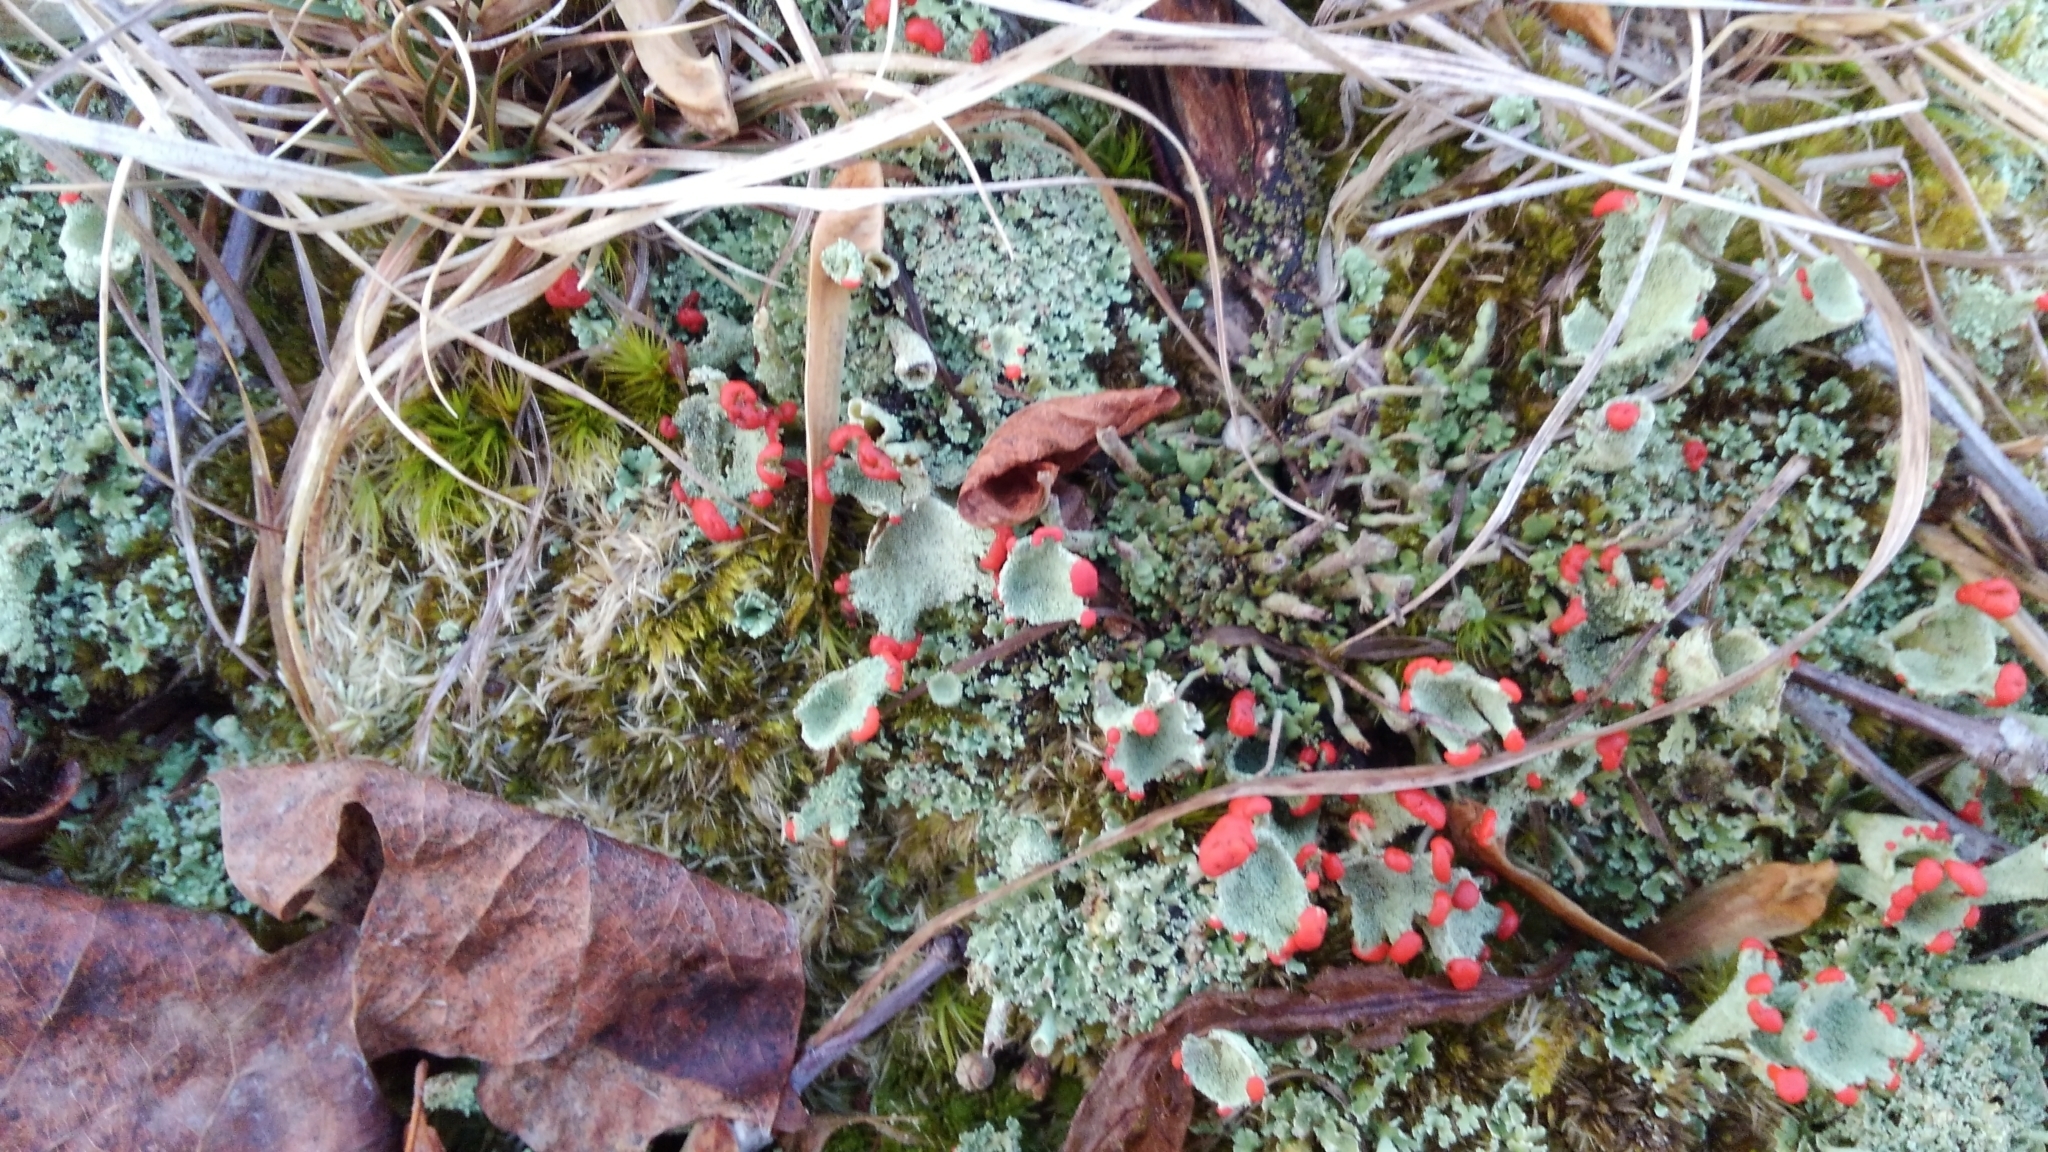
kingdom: Fungi
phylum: Ascomycota
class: Lecanoromycetes
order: Lecanorales
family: Cladoniaceae
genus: Cladonia
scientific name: Cladonia pleurota
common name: Red-fruited pixie cup
